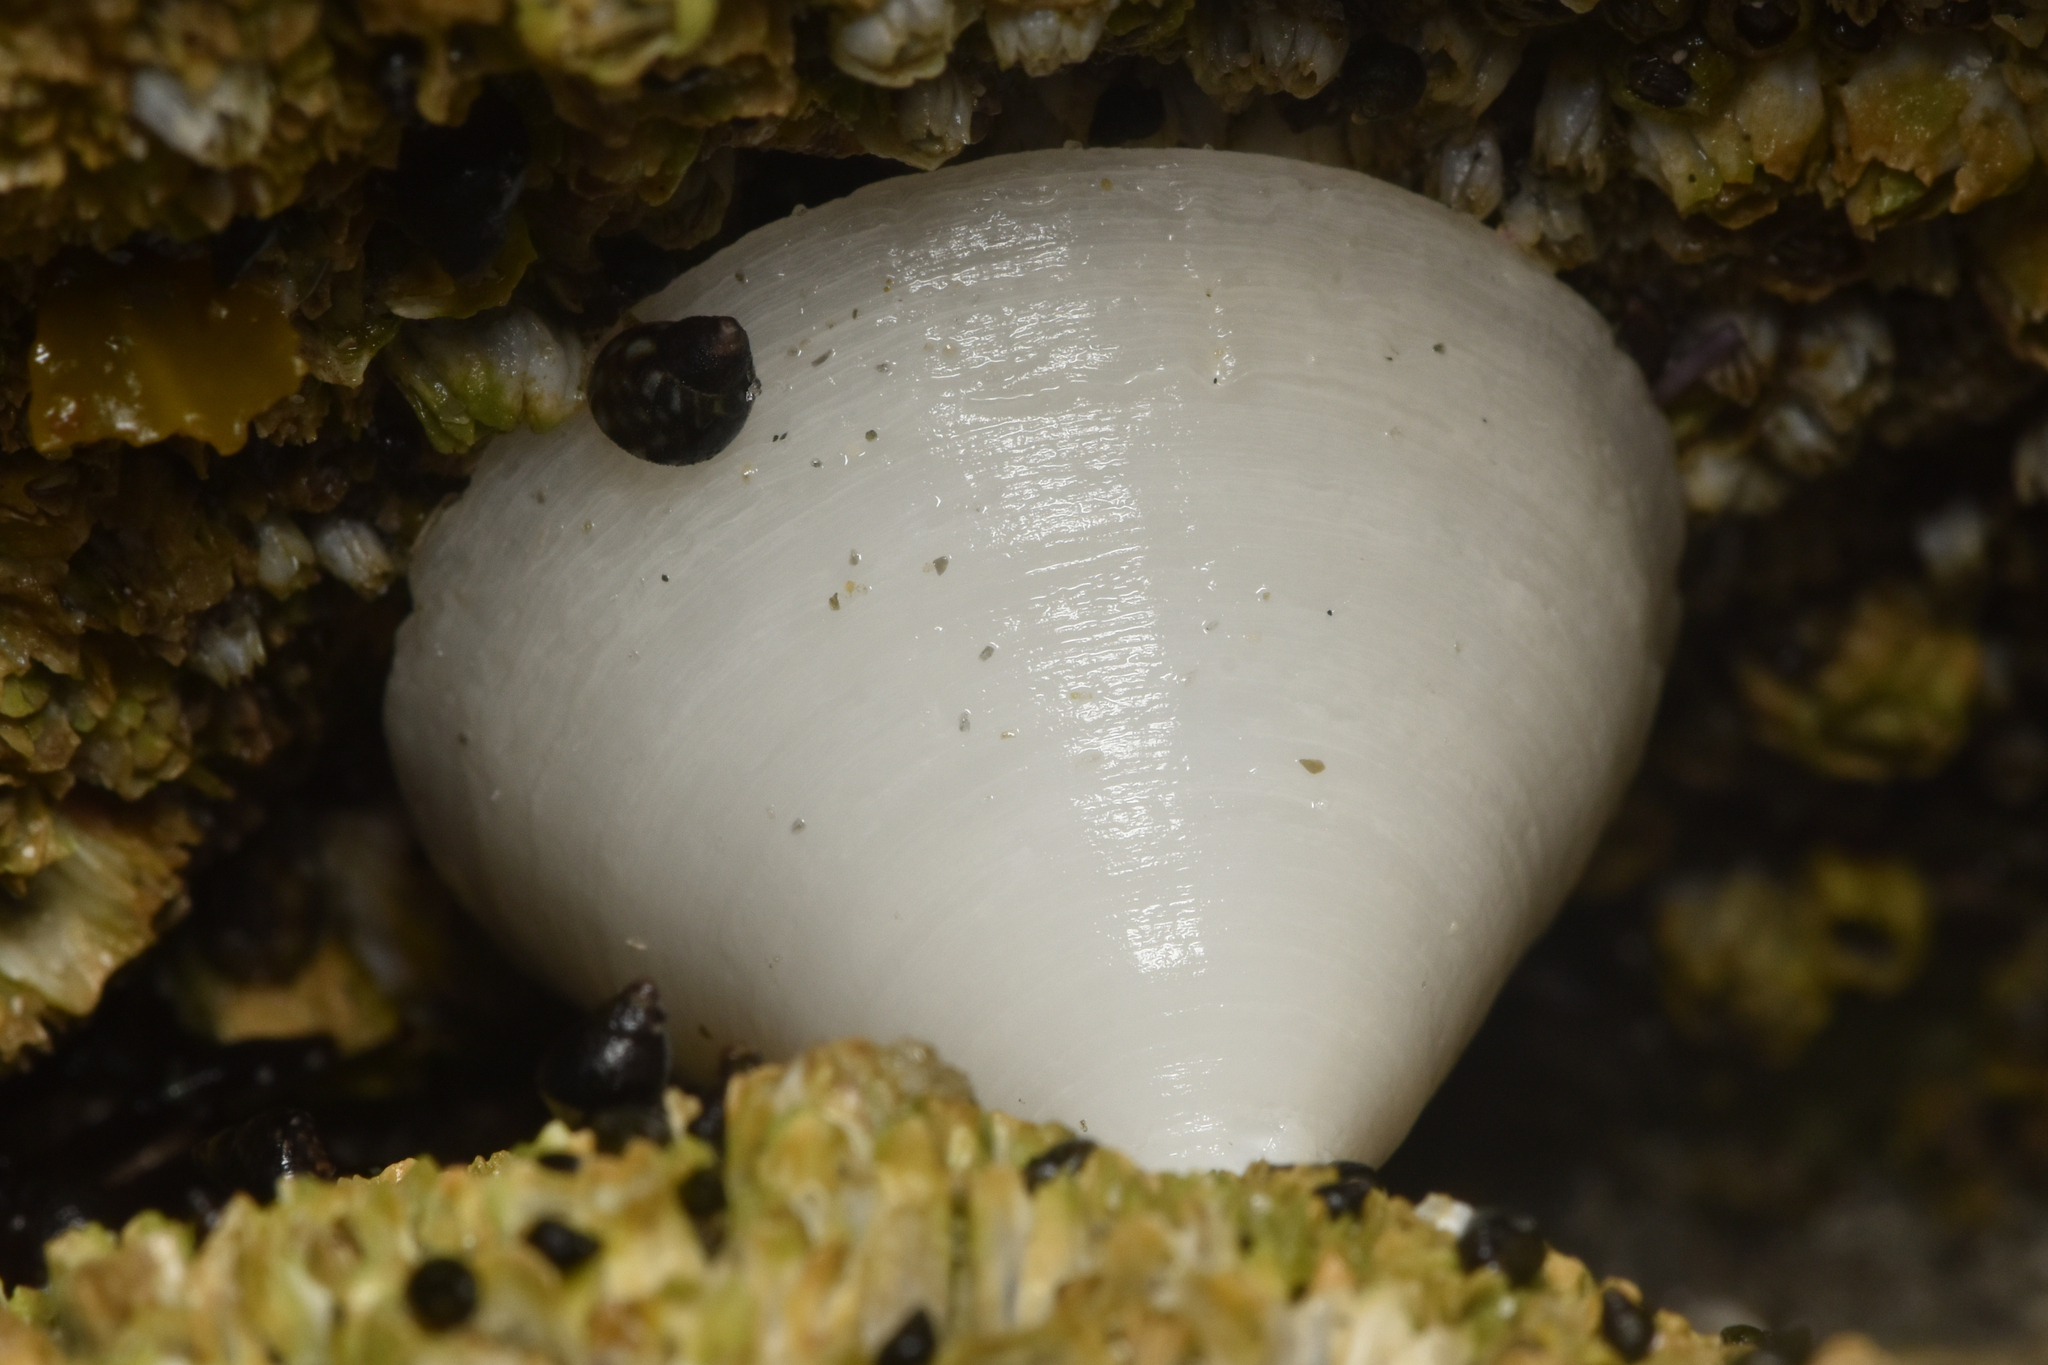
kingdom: Animalia
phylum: Mollusca
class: Gastropoda
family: Acmaeidae
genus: Acmaea
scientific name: Acmaea mitra
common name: Pacific white cap limpet
